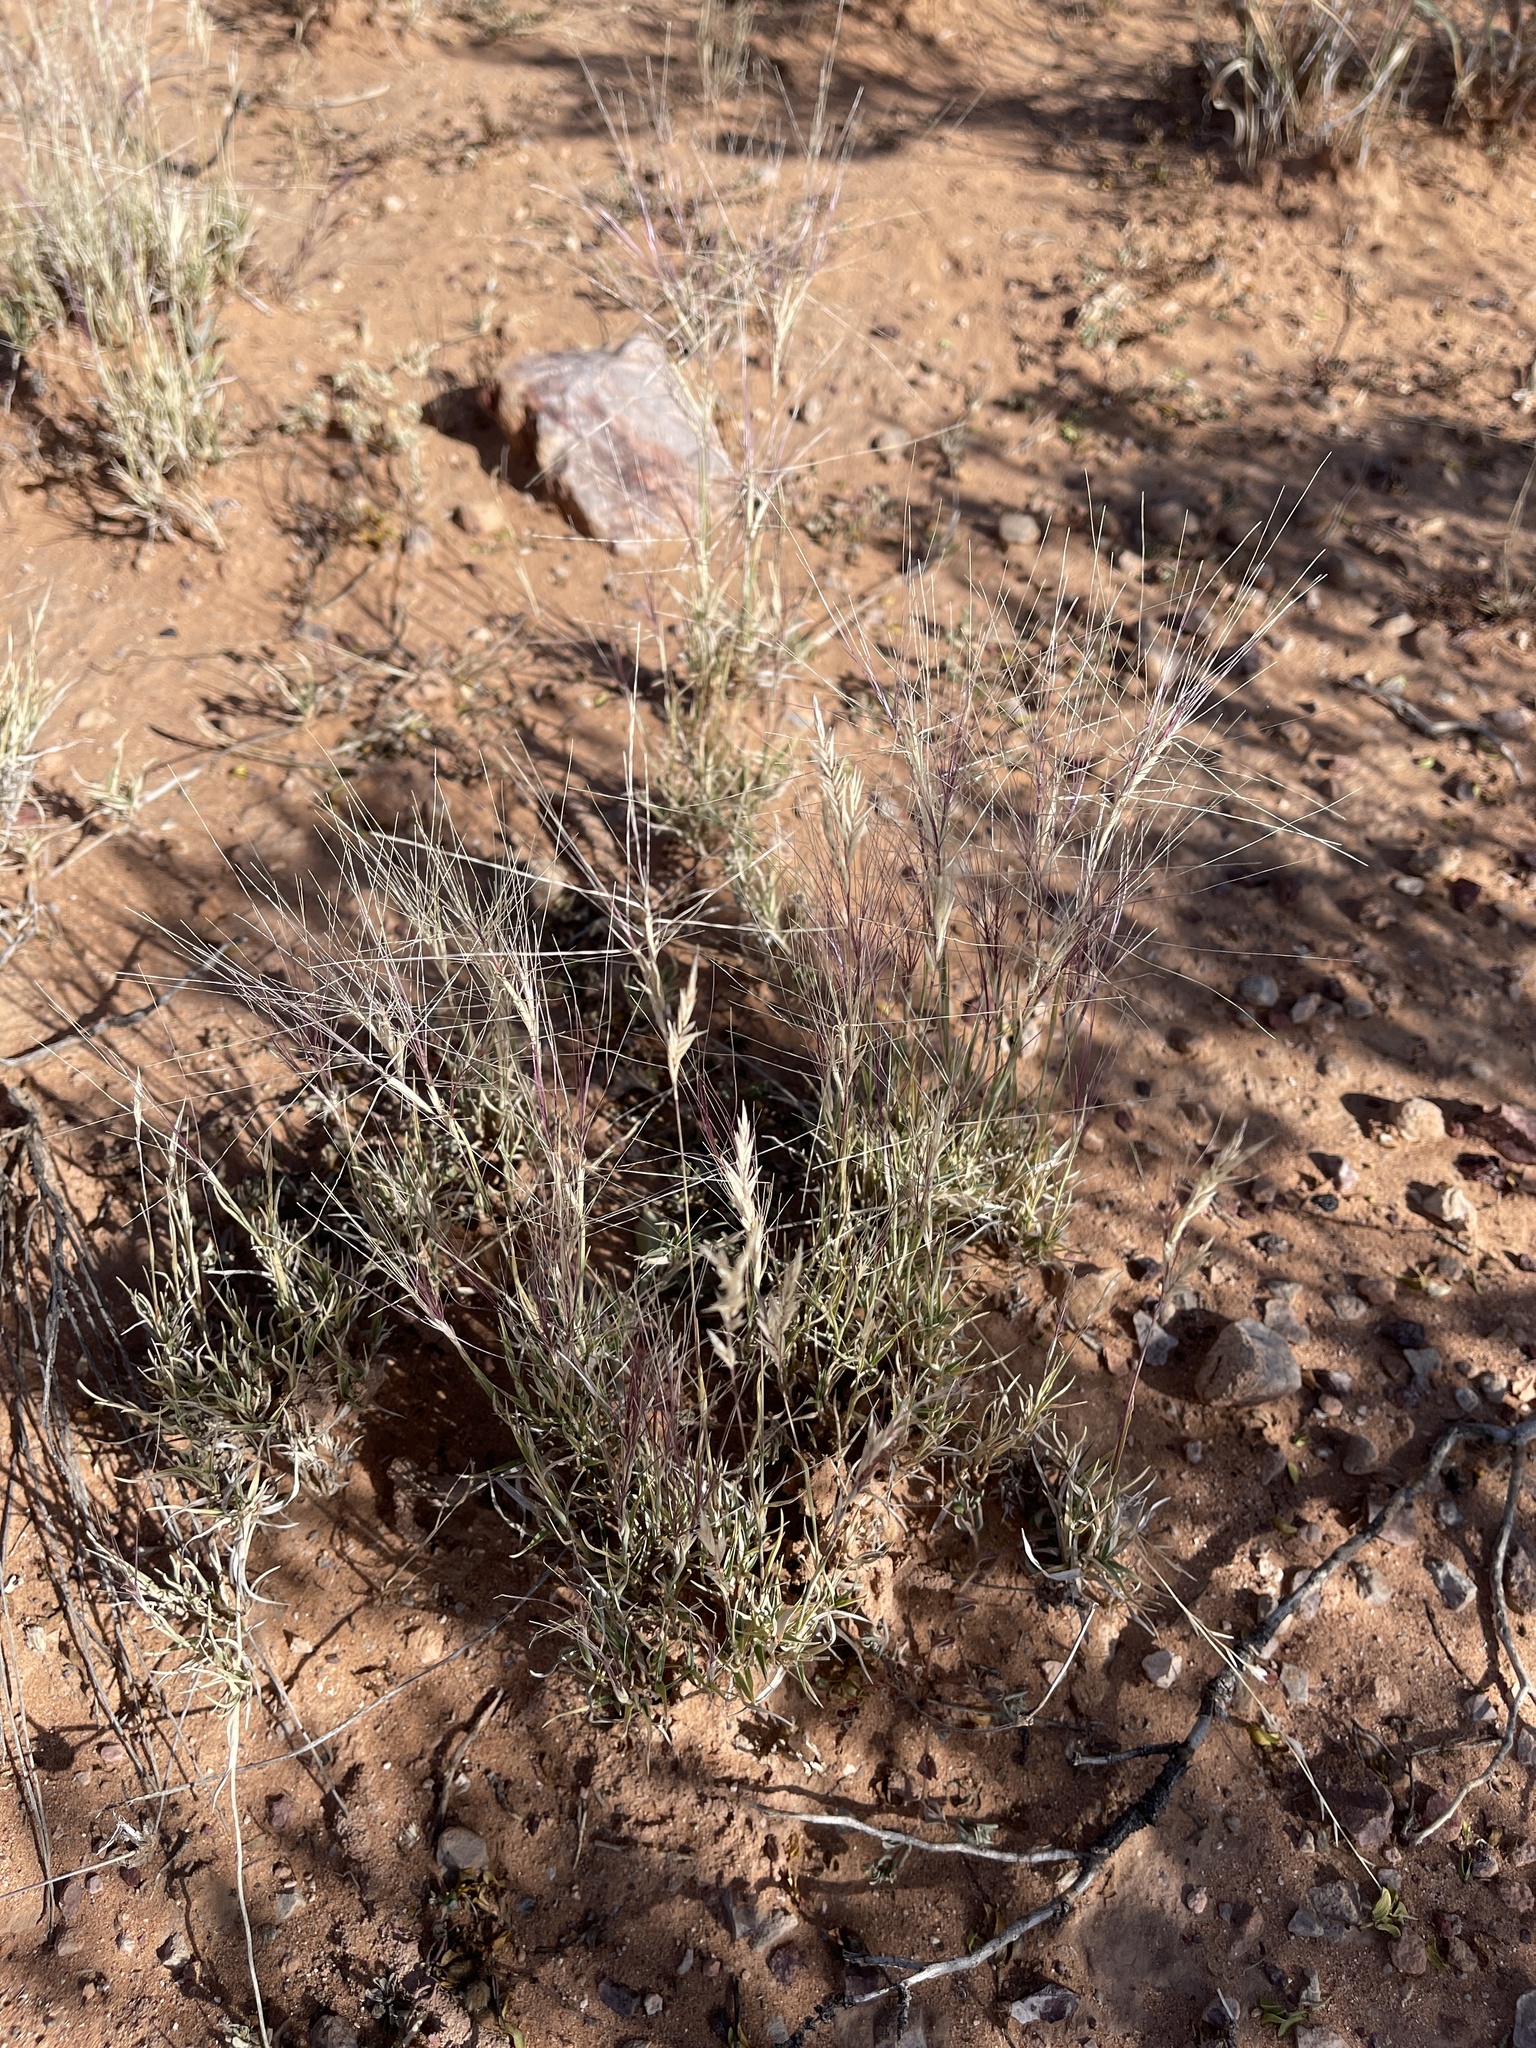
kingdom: Plantae
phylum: Tracheophyta
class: Liliopsida
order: Poales
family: Poaceae
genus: Scleropogon
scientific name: Scleropogon brevifolius
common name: Burro grass
